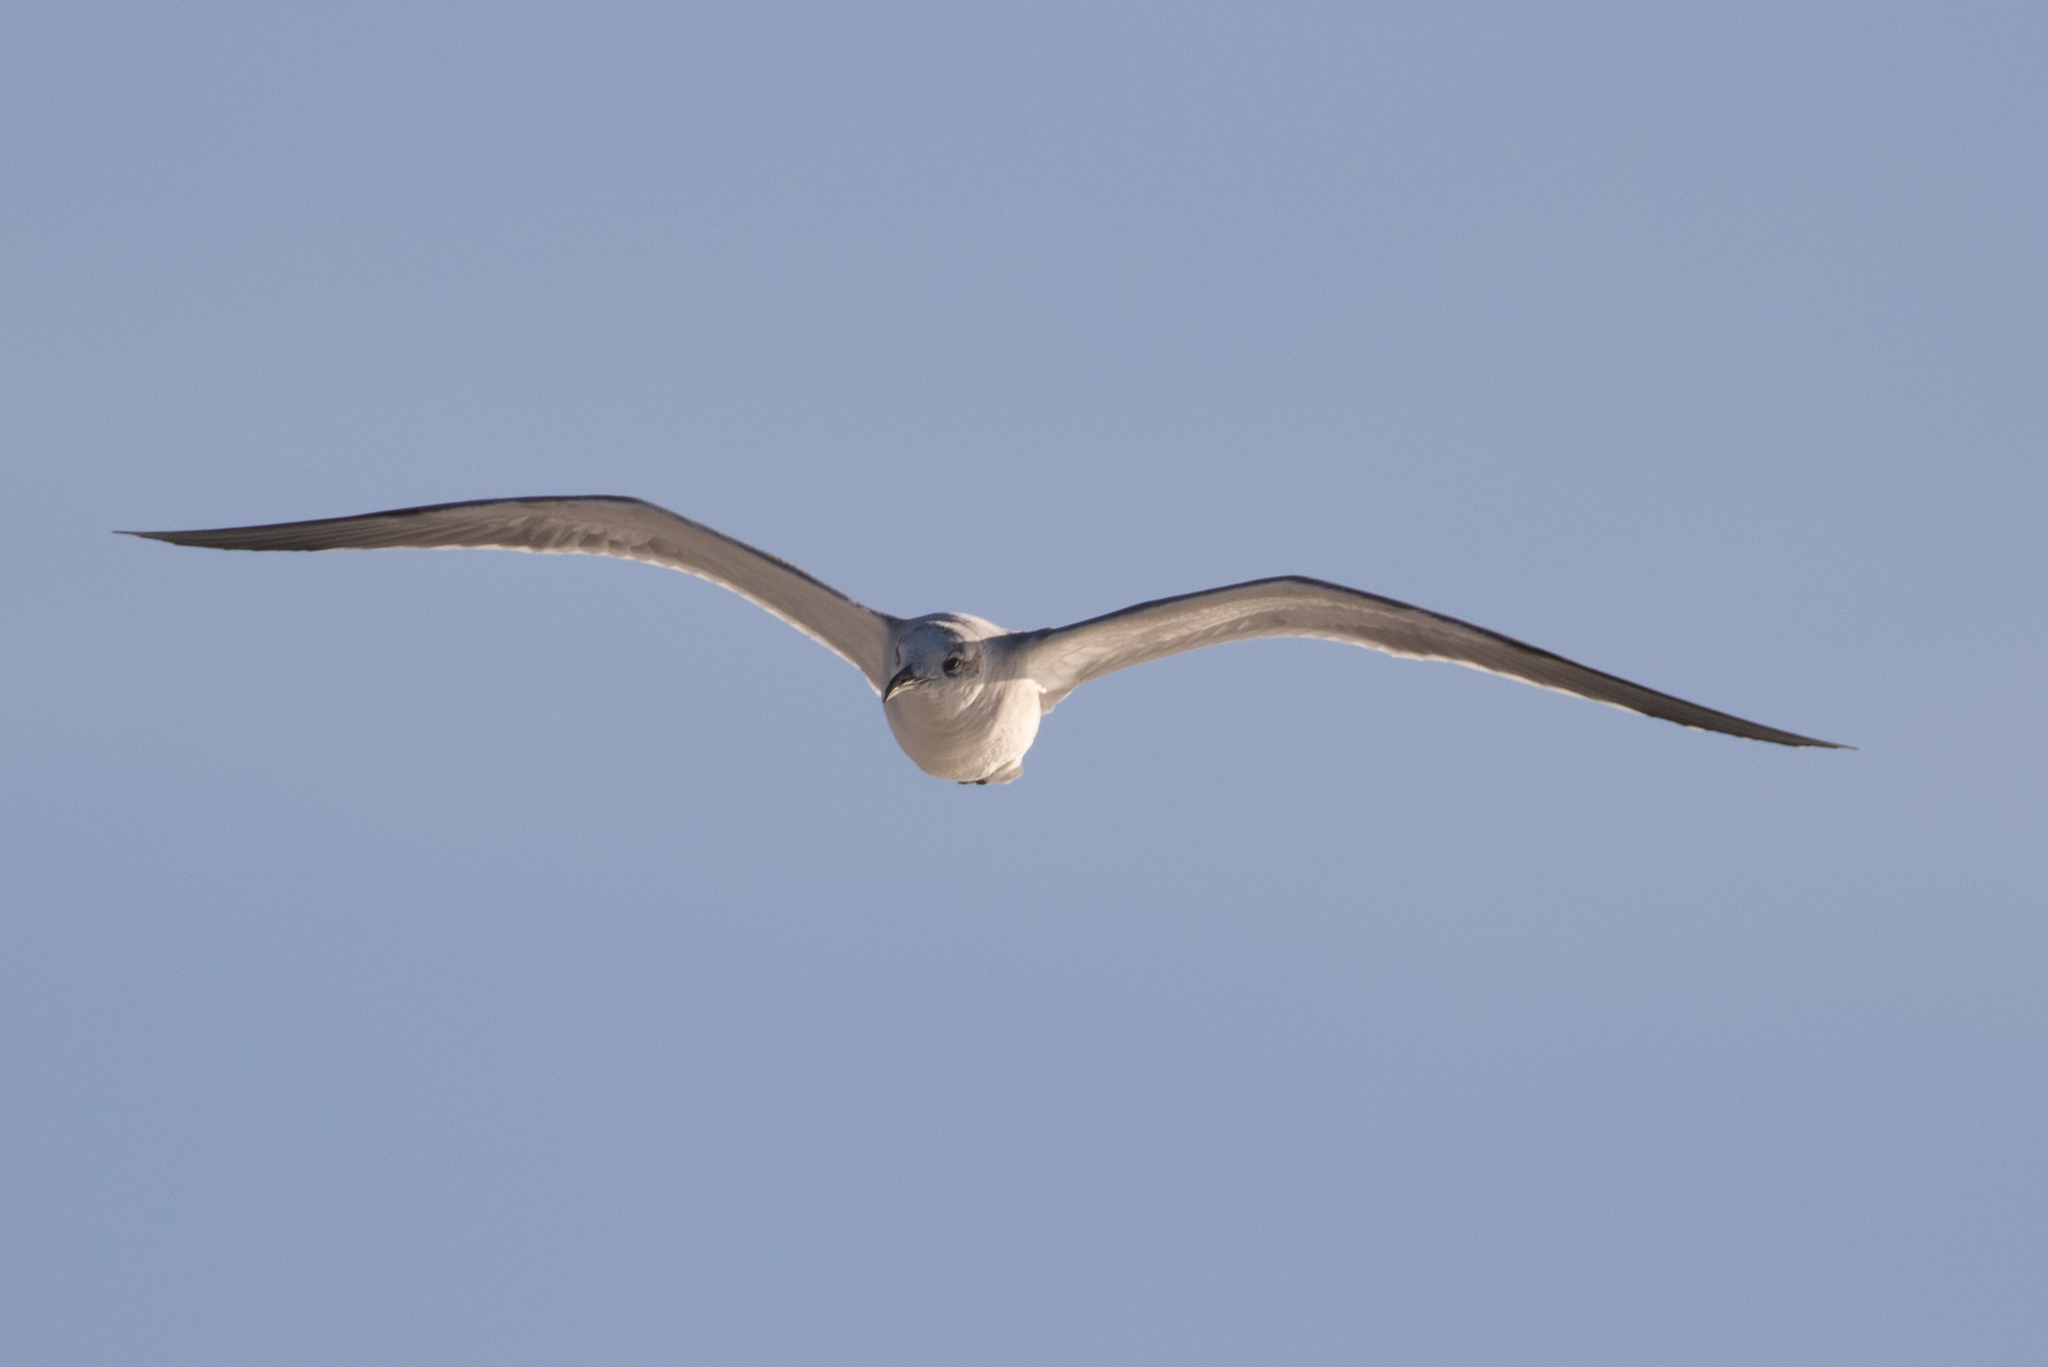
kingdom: Animalia
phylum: Chordata
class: Aves
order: Charadriiformes
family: Laridae
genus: Leucophaeus
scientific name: Leucophaeus atricilla
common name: Laughing gull
